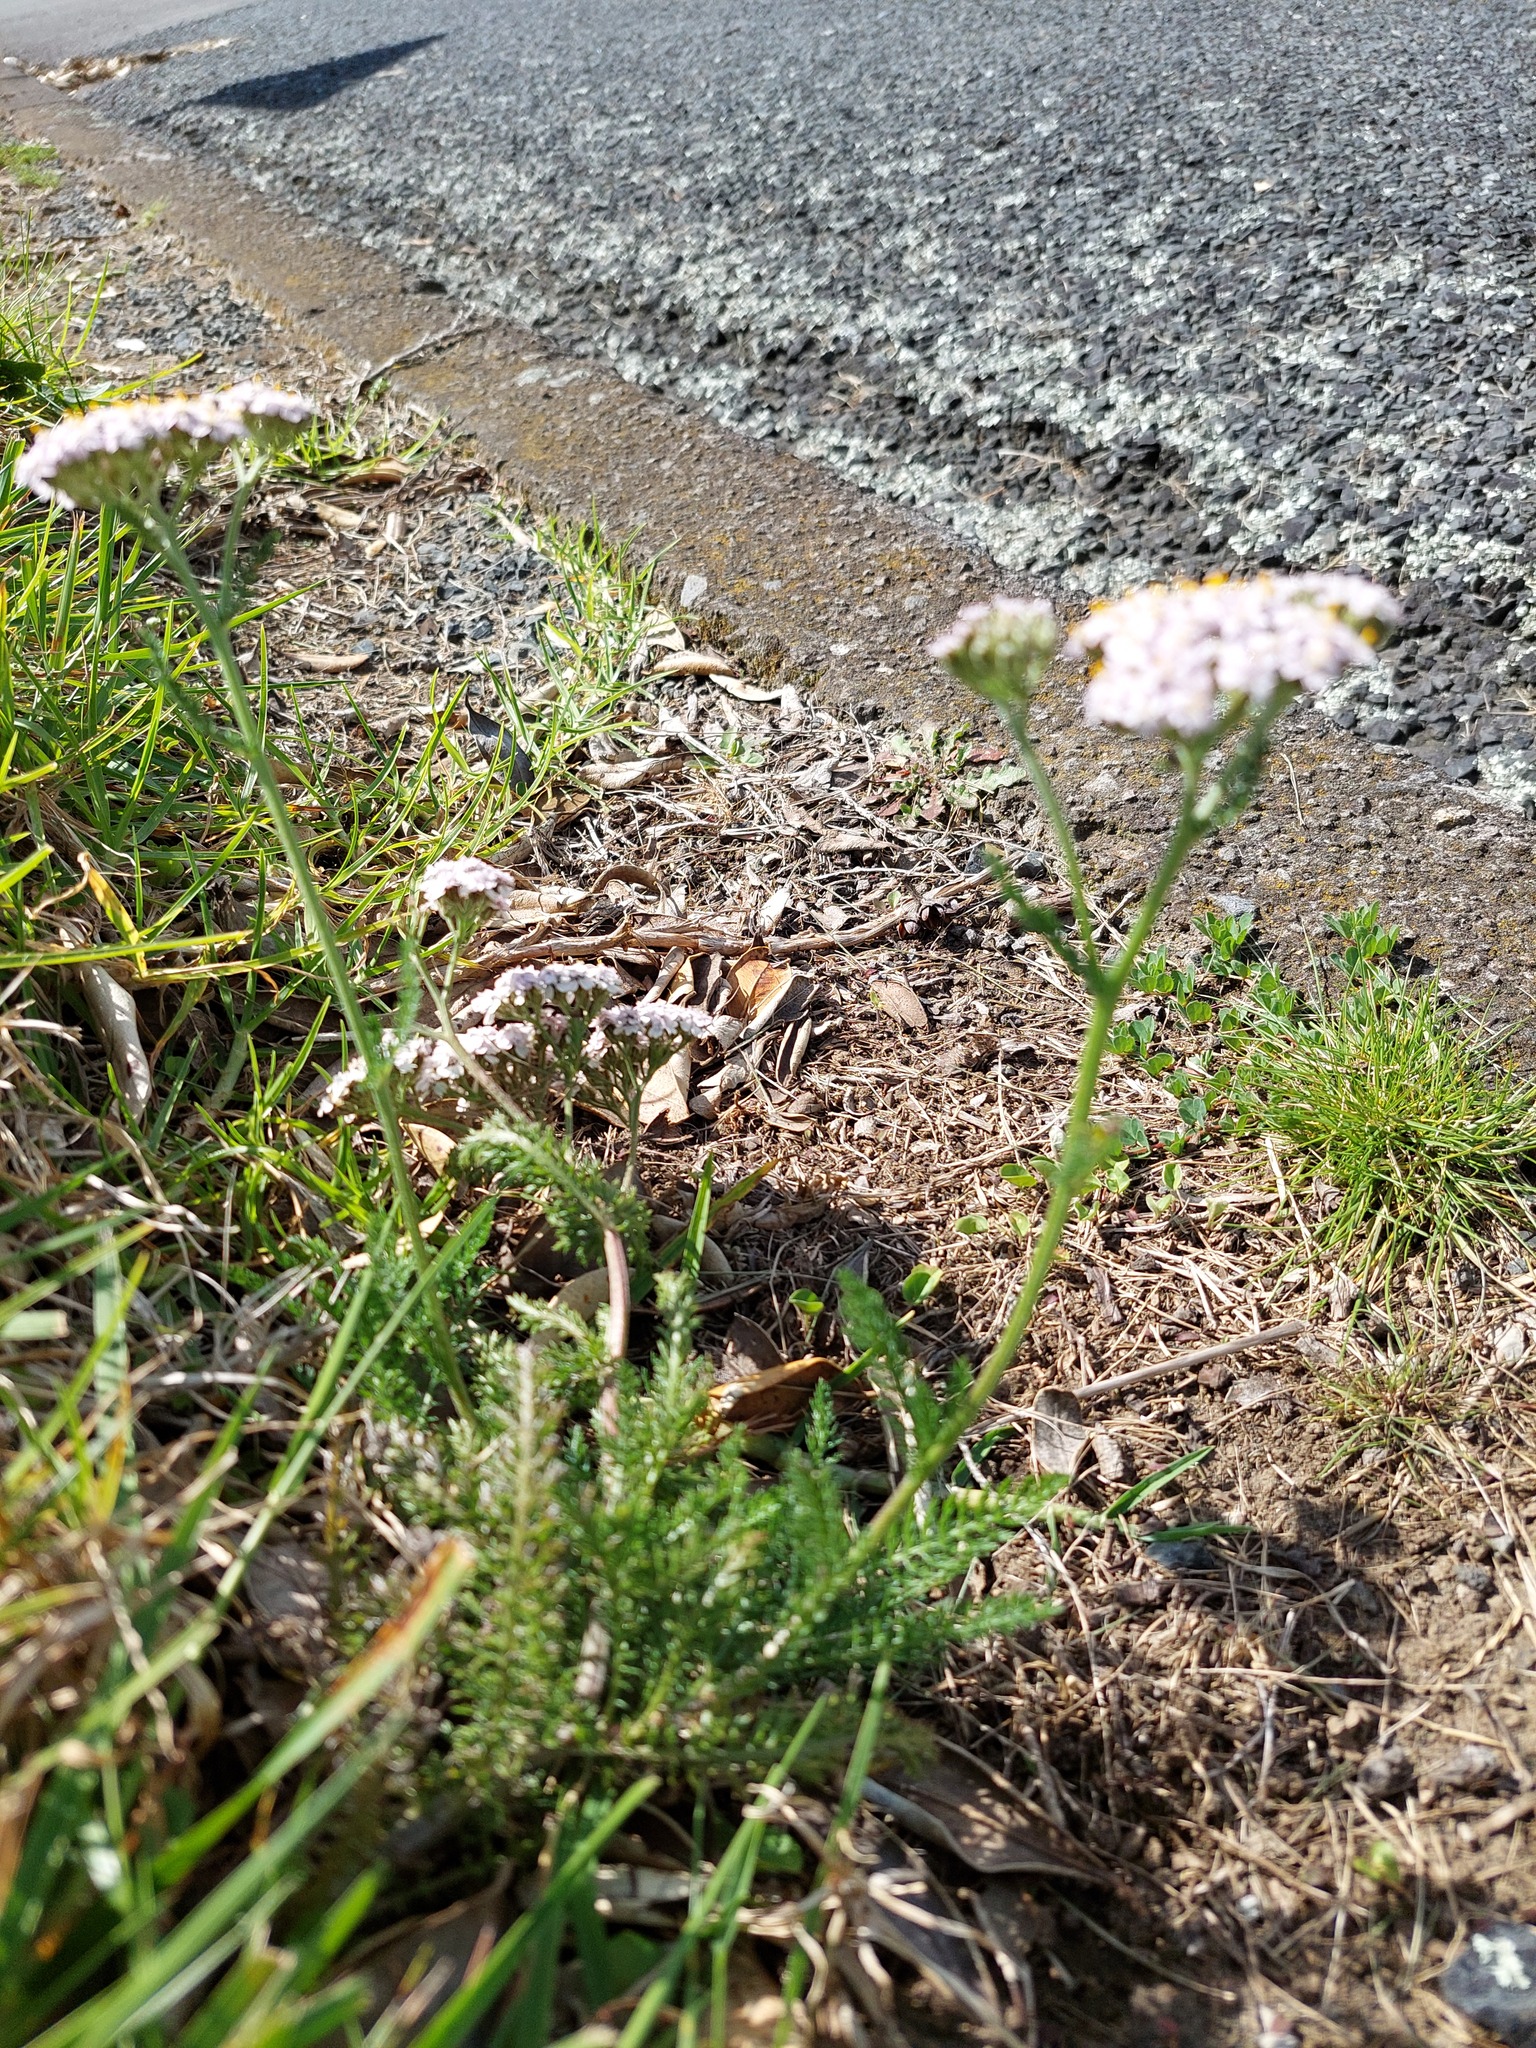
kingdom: Plantae
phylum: Tracheophyta
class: Magnoliopsida
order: Asterales
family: Asteraceae
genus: Achillea
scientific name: Achillea millefolium
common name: Yarrow
